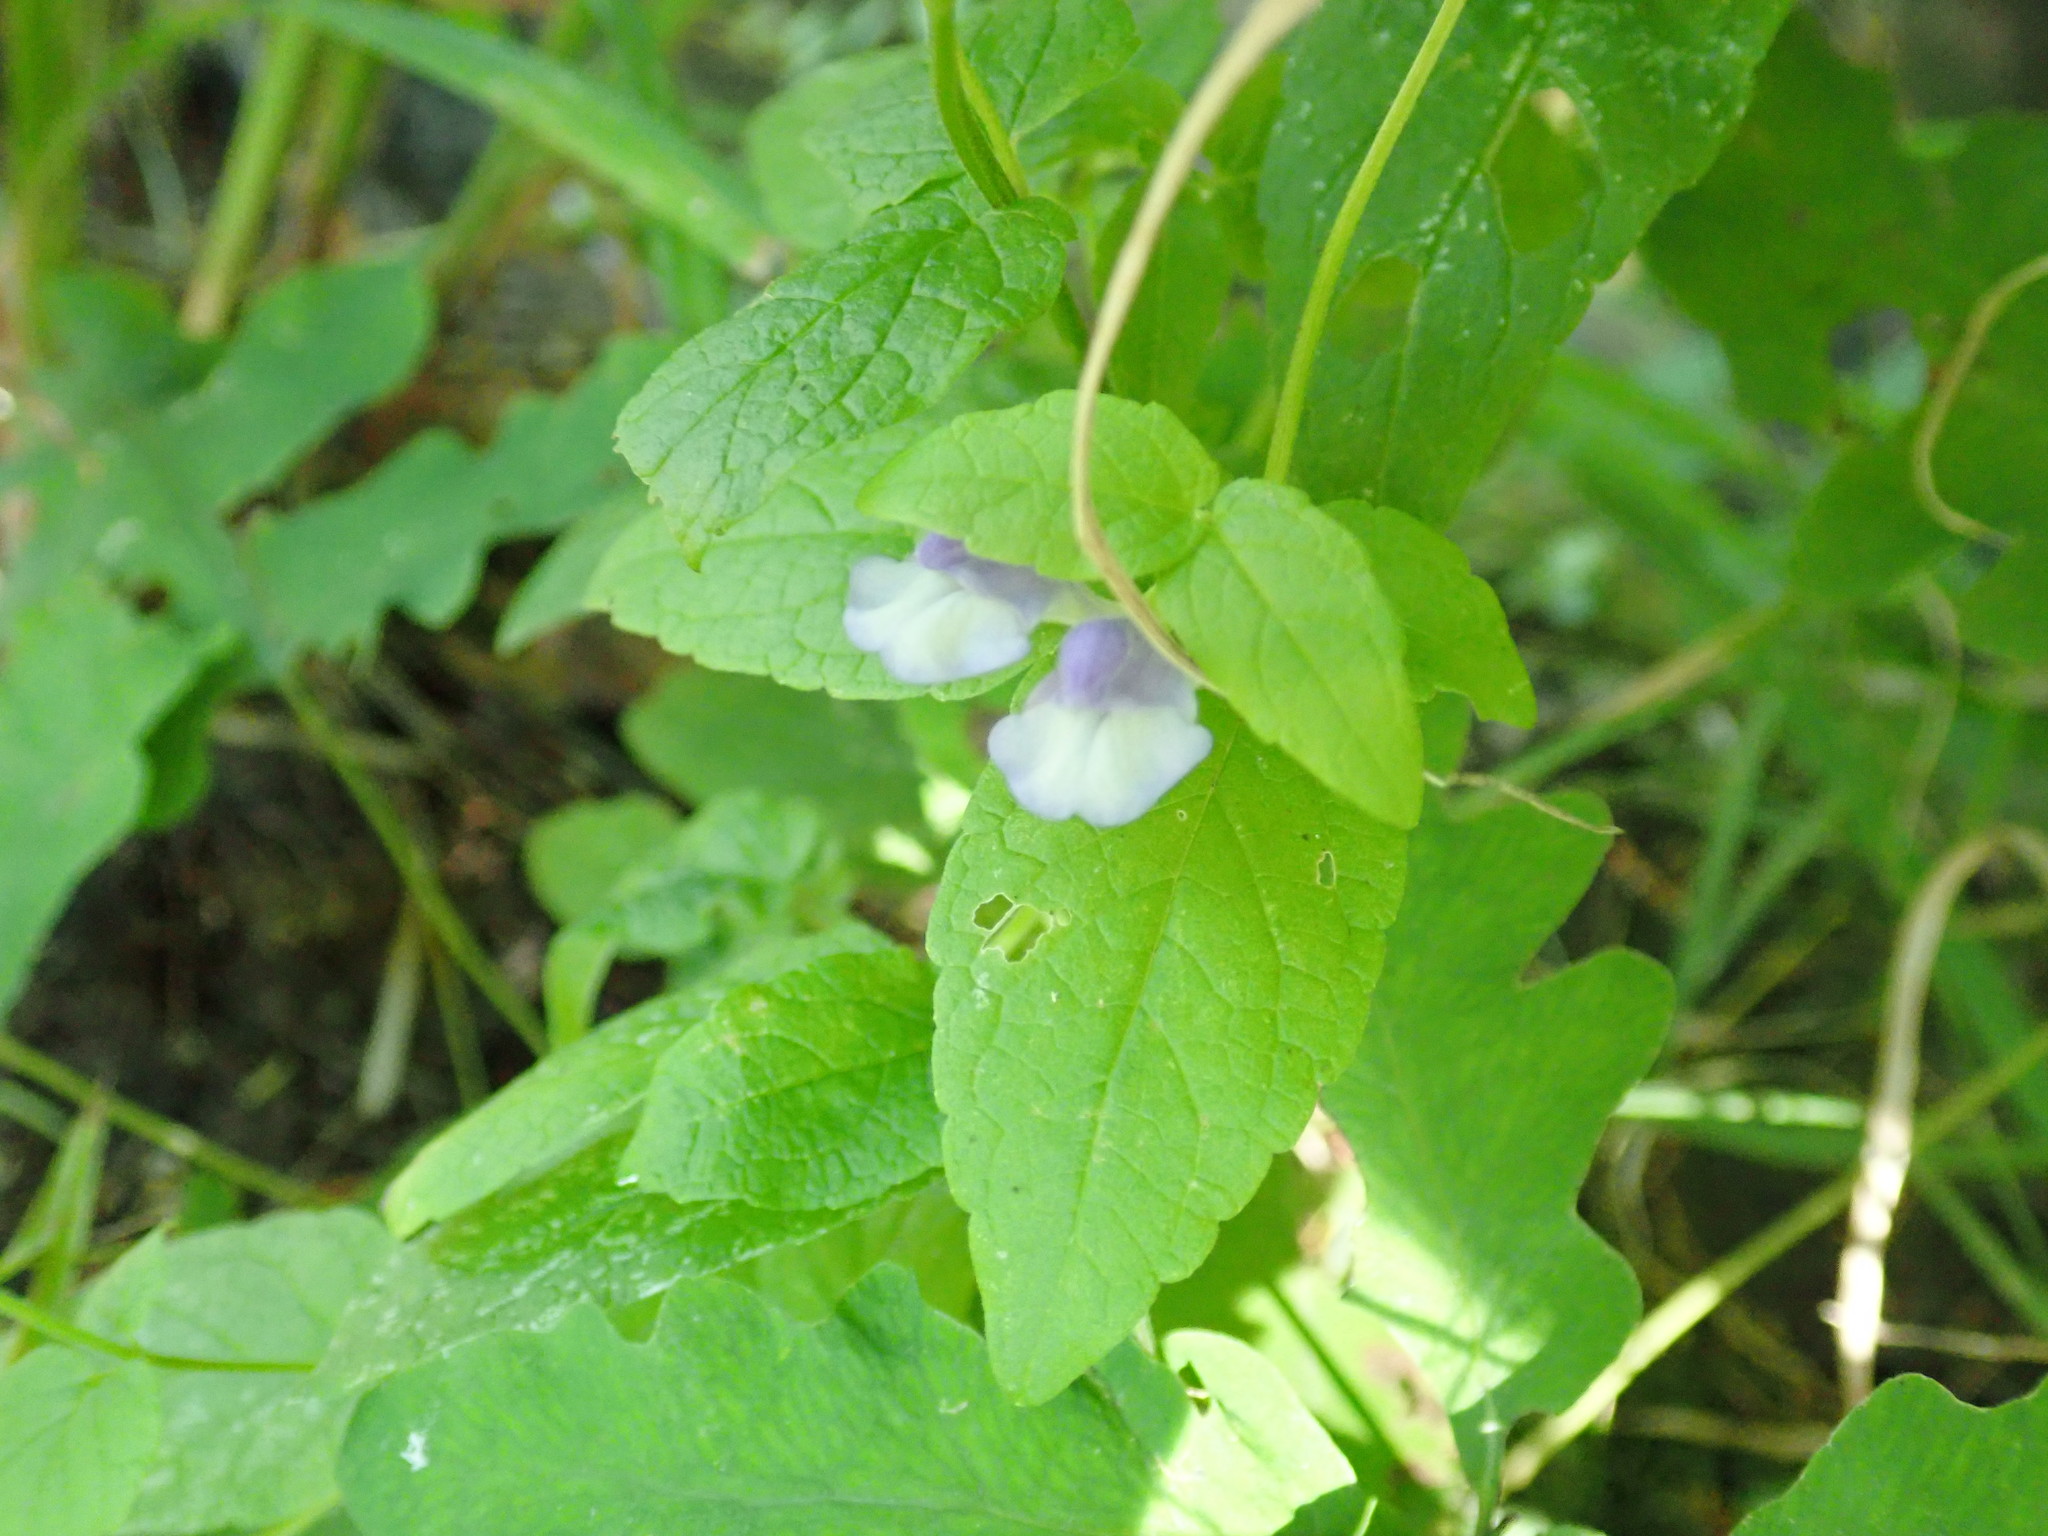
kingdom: Plantae
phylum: Tracheophyta
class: Magnoliopsida
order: Lamiales
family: Lamiaceae
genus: Scutellaria
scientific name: Scutellaria galericulata
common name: Skullcap
